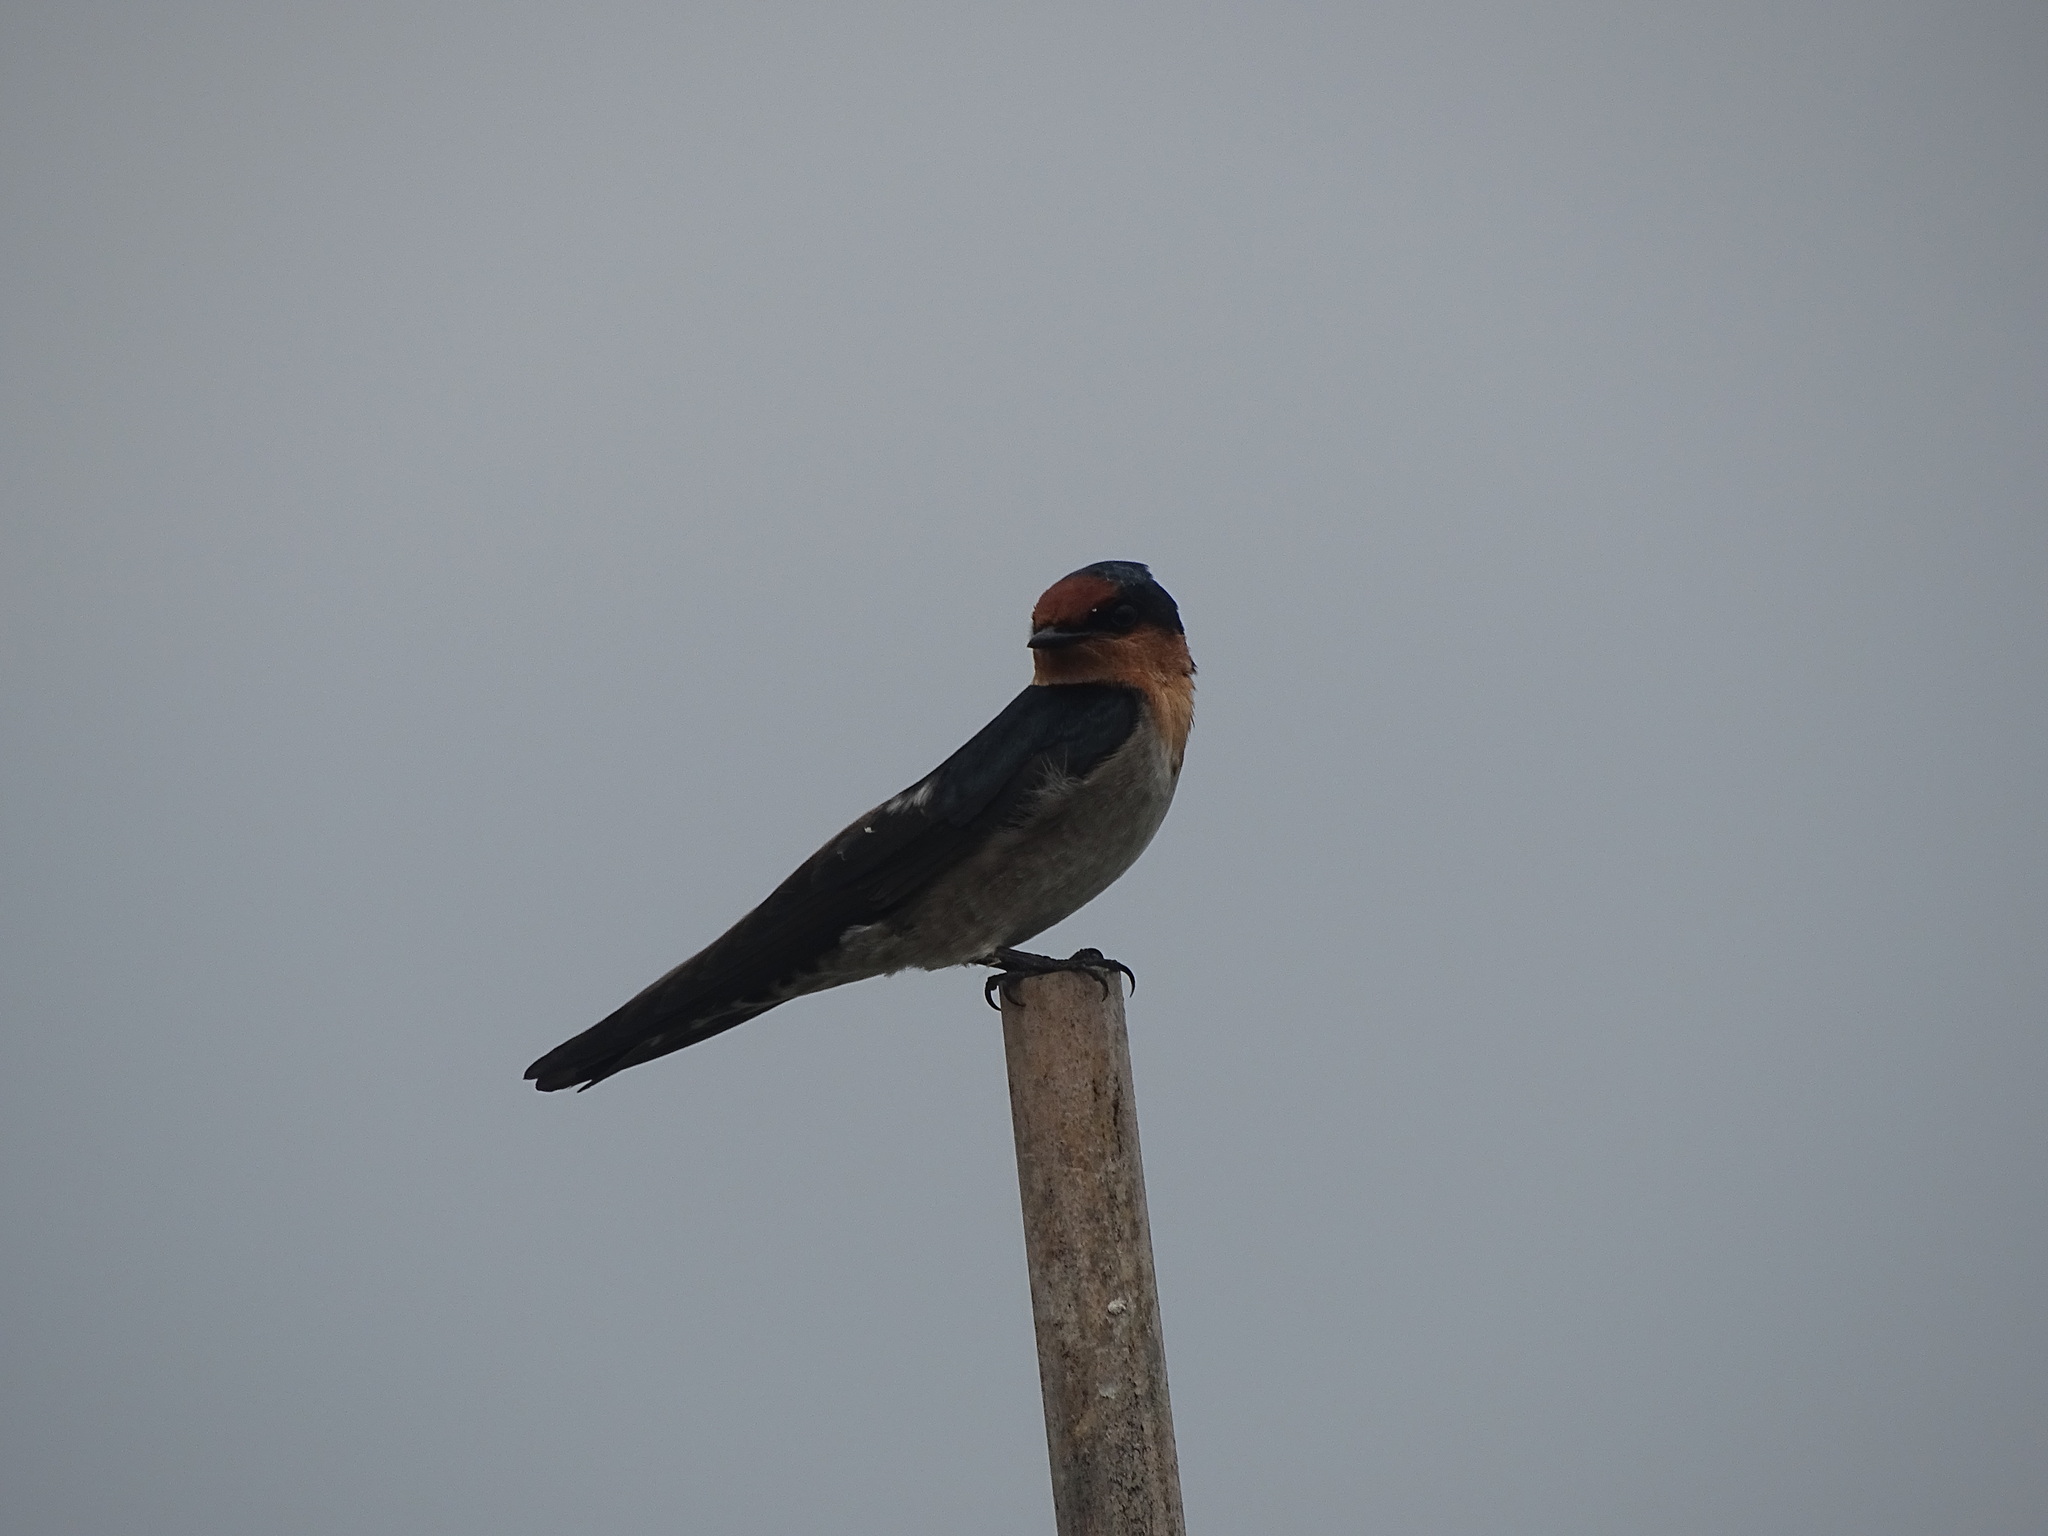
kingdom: Animalia
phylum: Chordata
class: Aves
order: Passeriformes
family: Hirundinidae
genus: Hirundo
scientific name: Hirundo tahitica
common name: Pacific swallow
